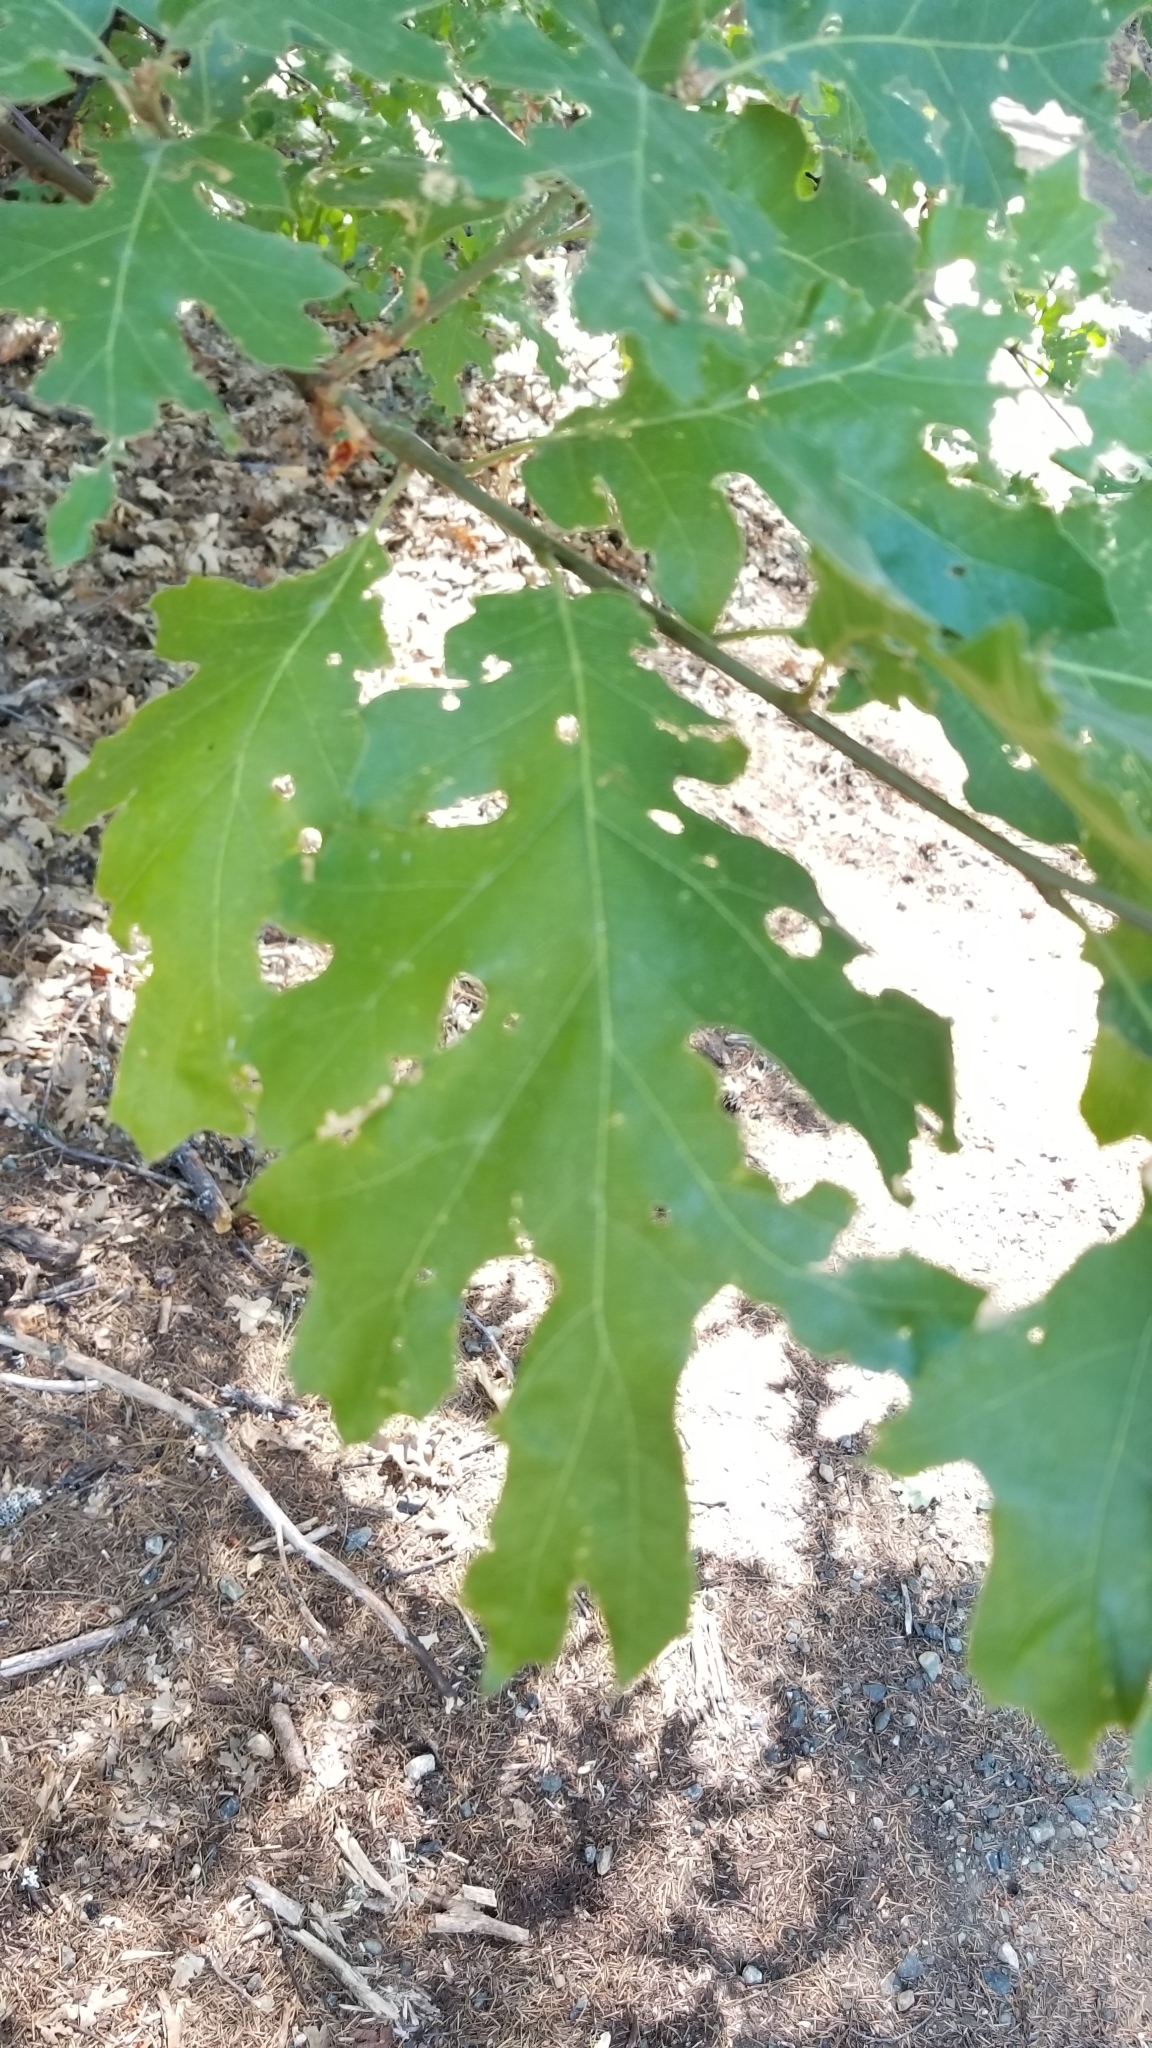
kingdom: Plantae
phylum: Tracheophyta
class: Magnoliopsida
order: Fagales
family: Fagaceae
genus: Quercus
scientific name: Quercus kelloggii
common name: California black oak
